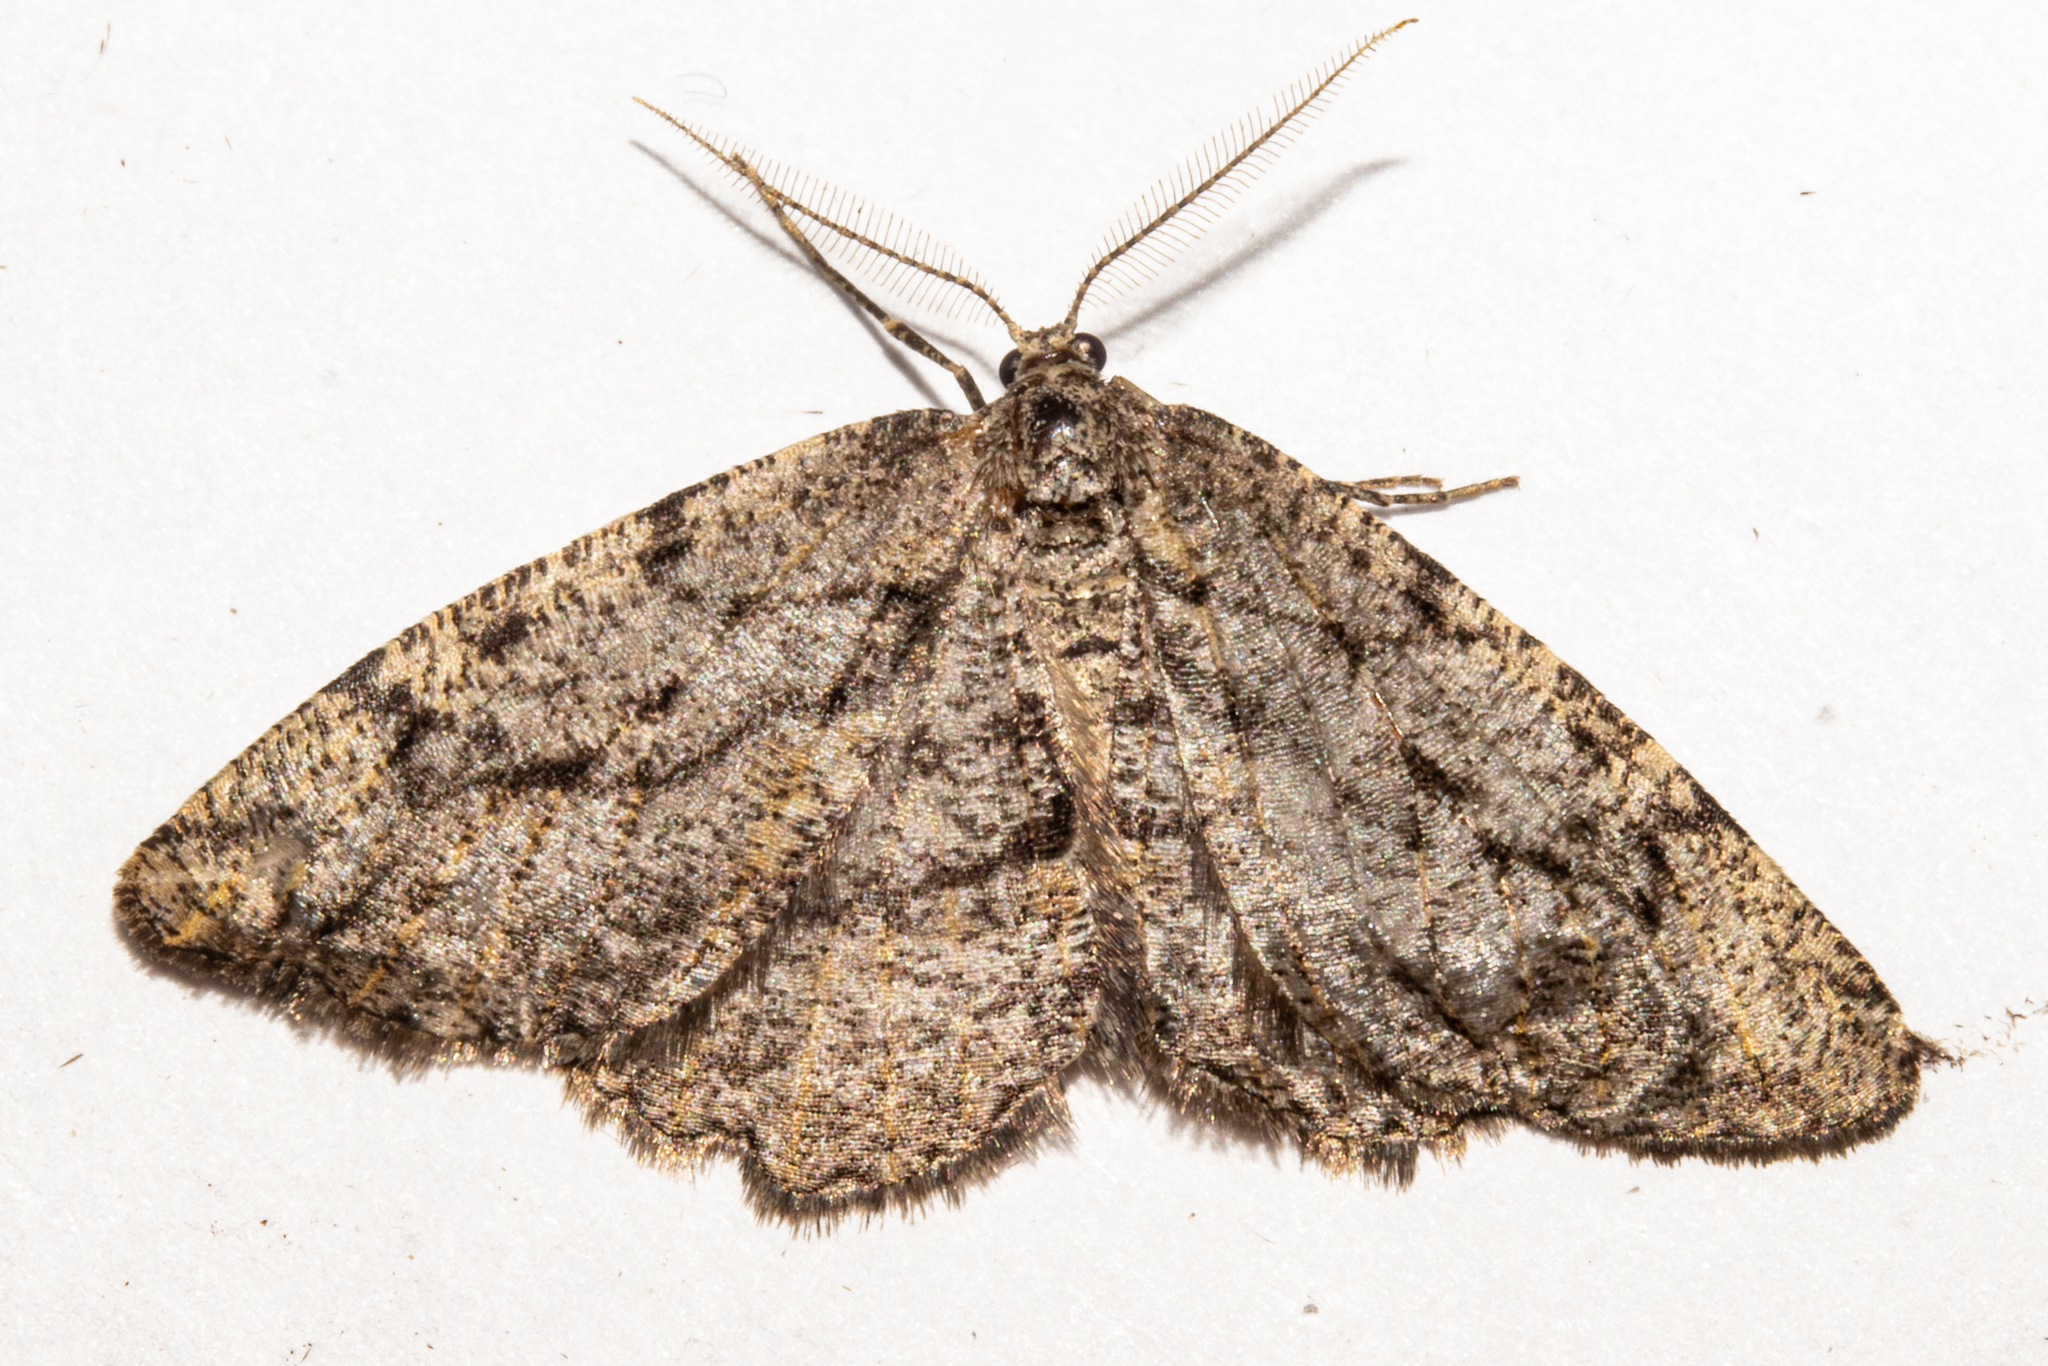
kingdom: Animalia
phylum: Arthropoda
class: Insecta
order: Lepidoptera
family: Geometridae
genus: Zermizinga
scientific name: Zermizinga indocilisaria
